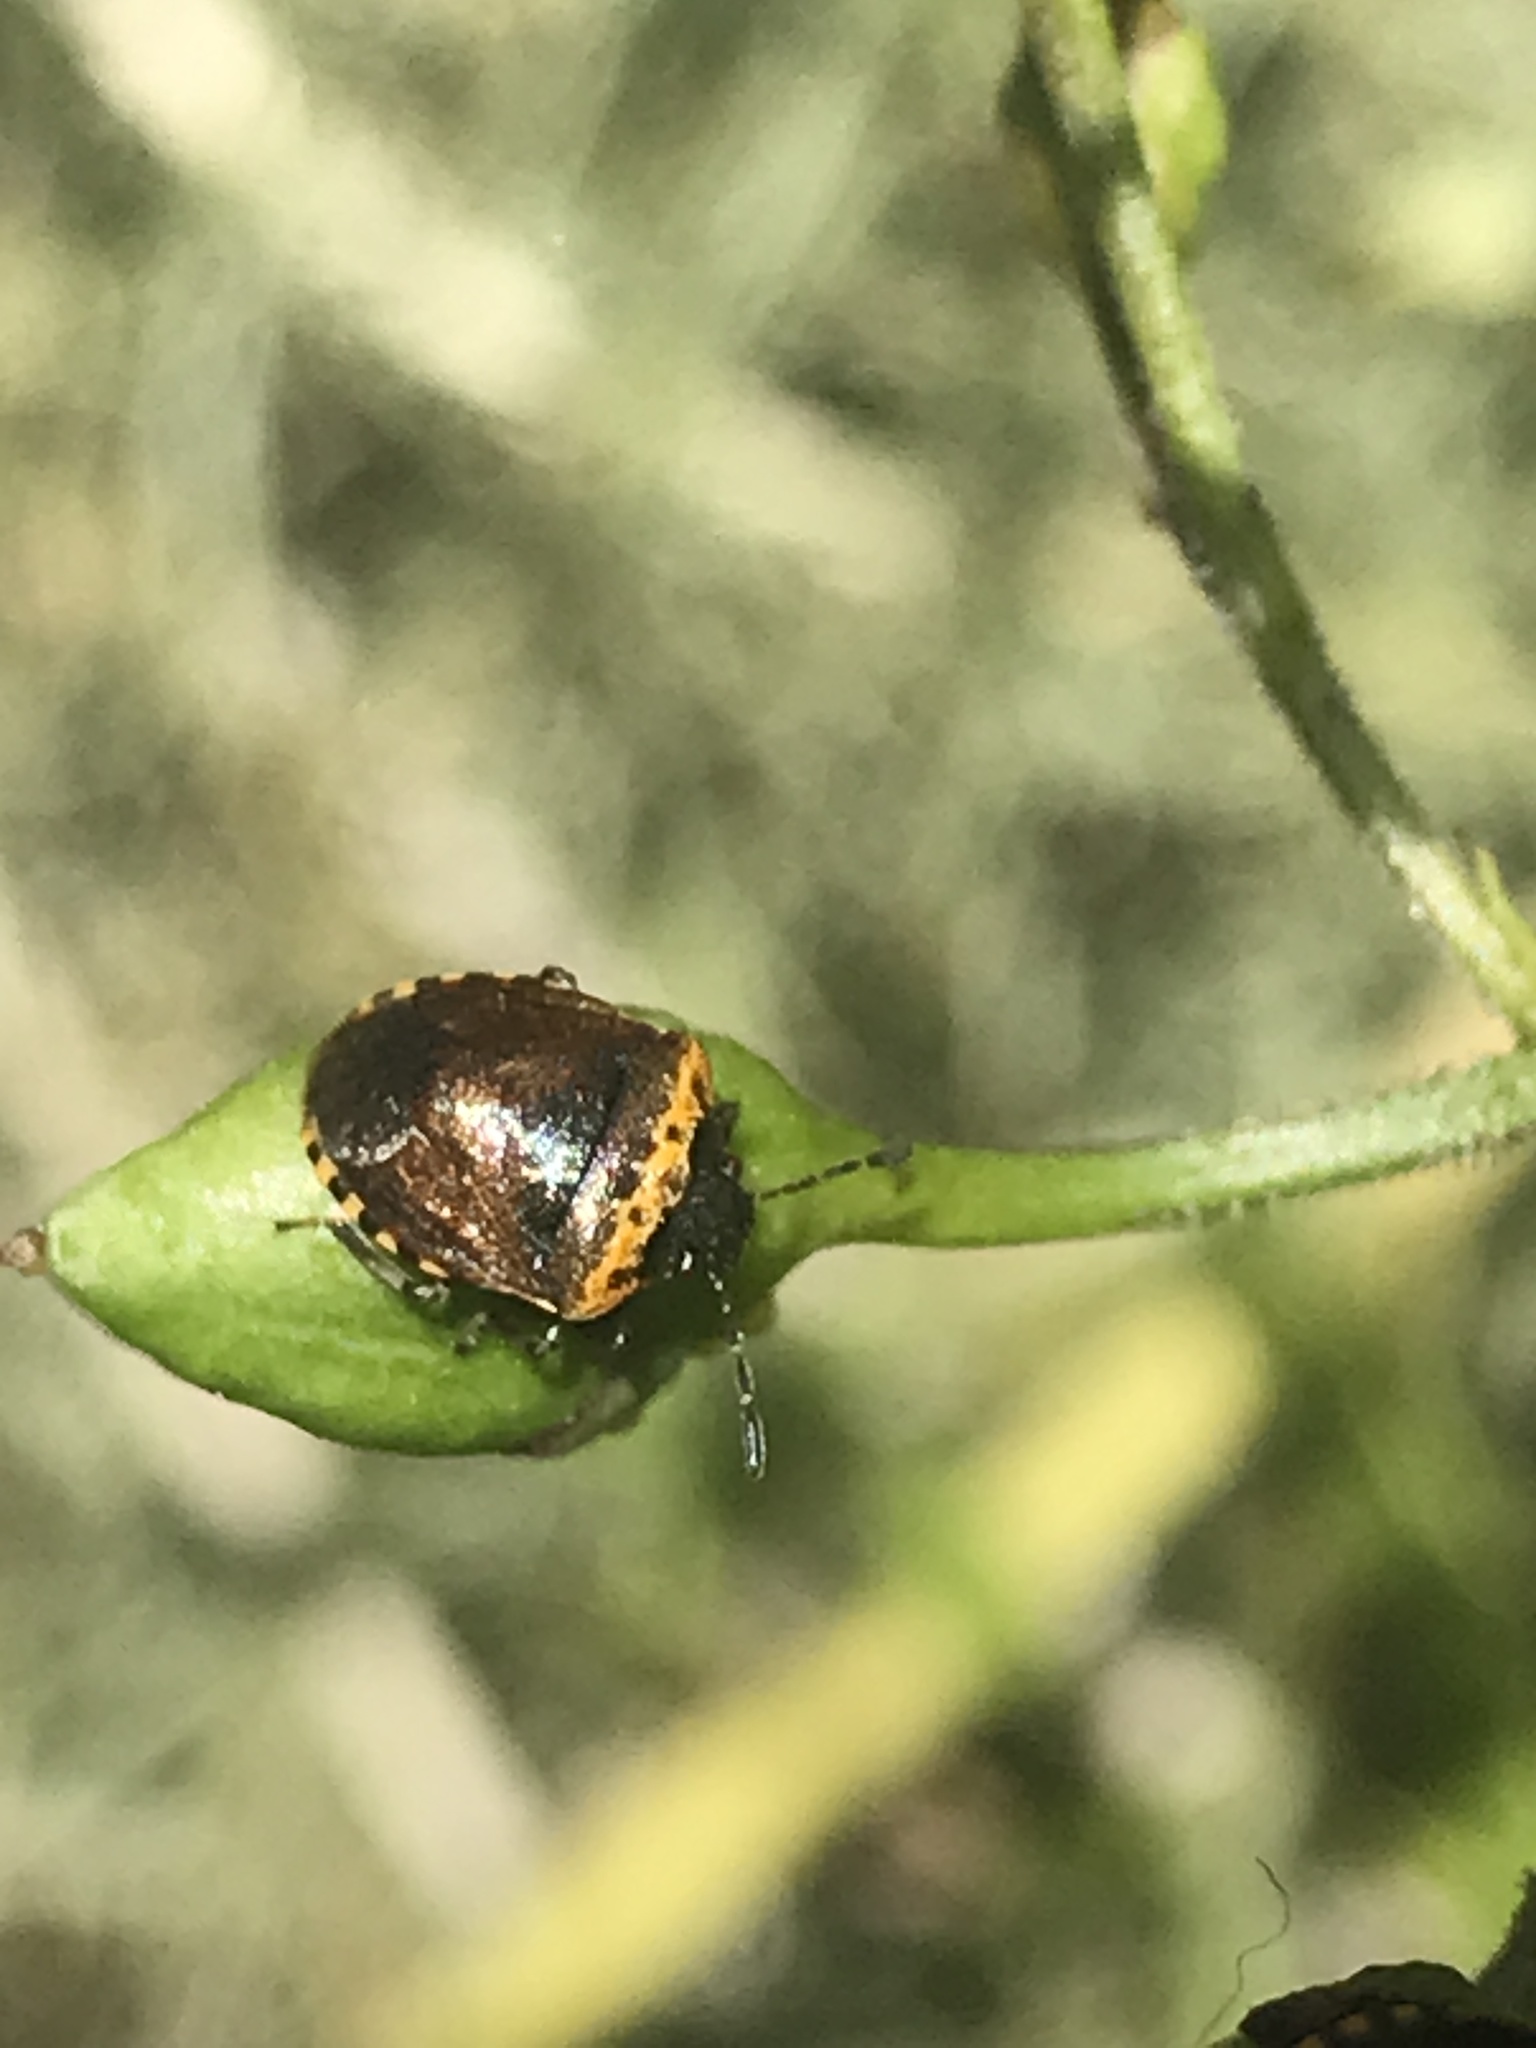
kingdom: Animalia
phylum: Arthropoda
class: Insecta
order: Hemiptera
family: Pentatomidae
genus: Cosmopepla
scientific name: Cosmopepla uhleri
